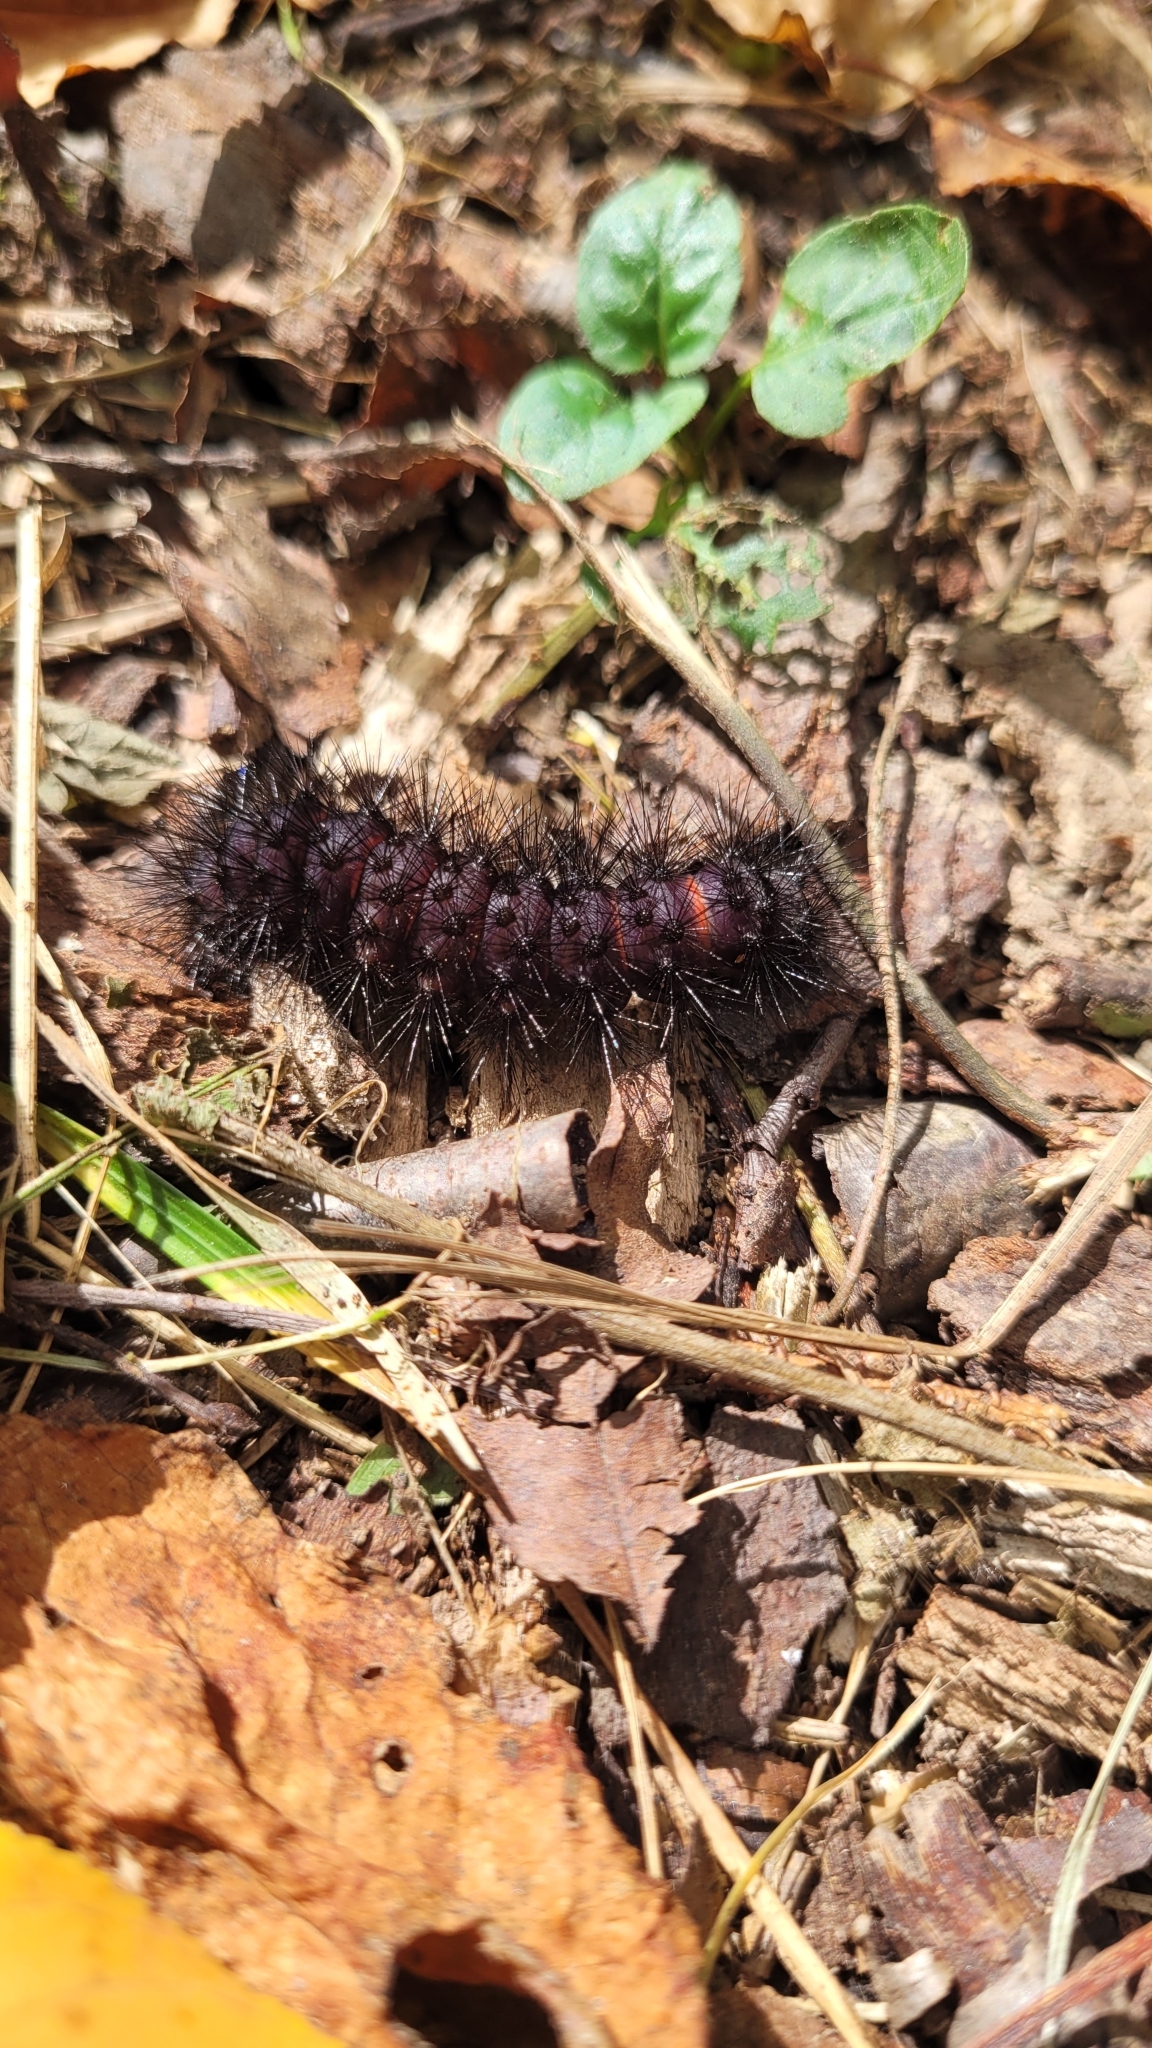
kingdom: Animalia
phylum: Arthropoda
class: Insecta
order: Lepidoptera
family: Erebidae
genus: Hypercompe
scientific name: Hypercompe scribonia
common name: Giant leopard moth
